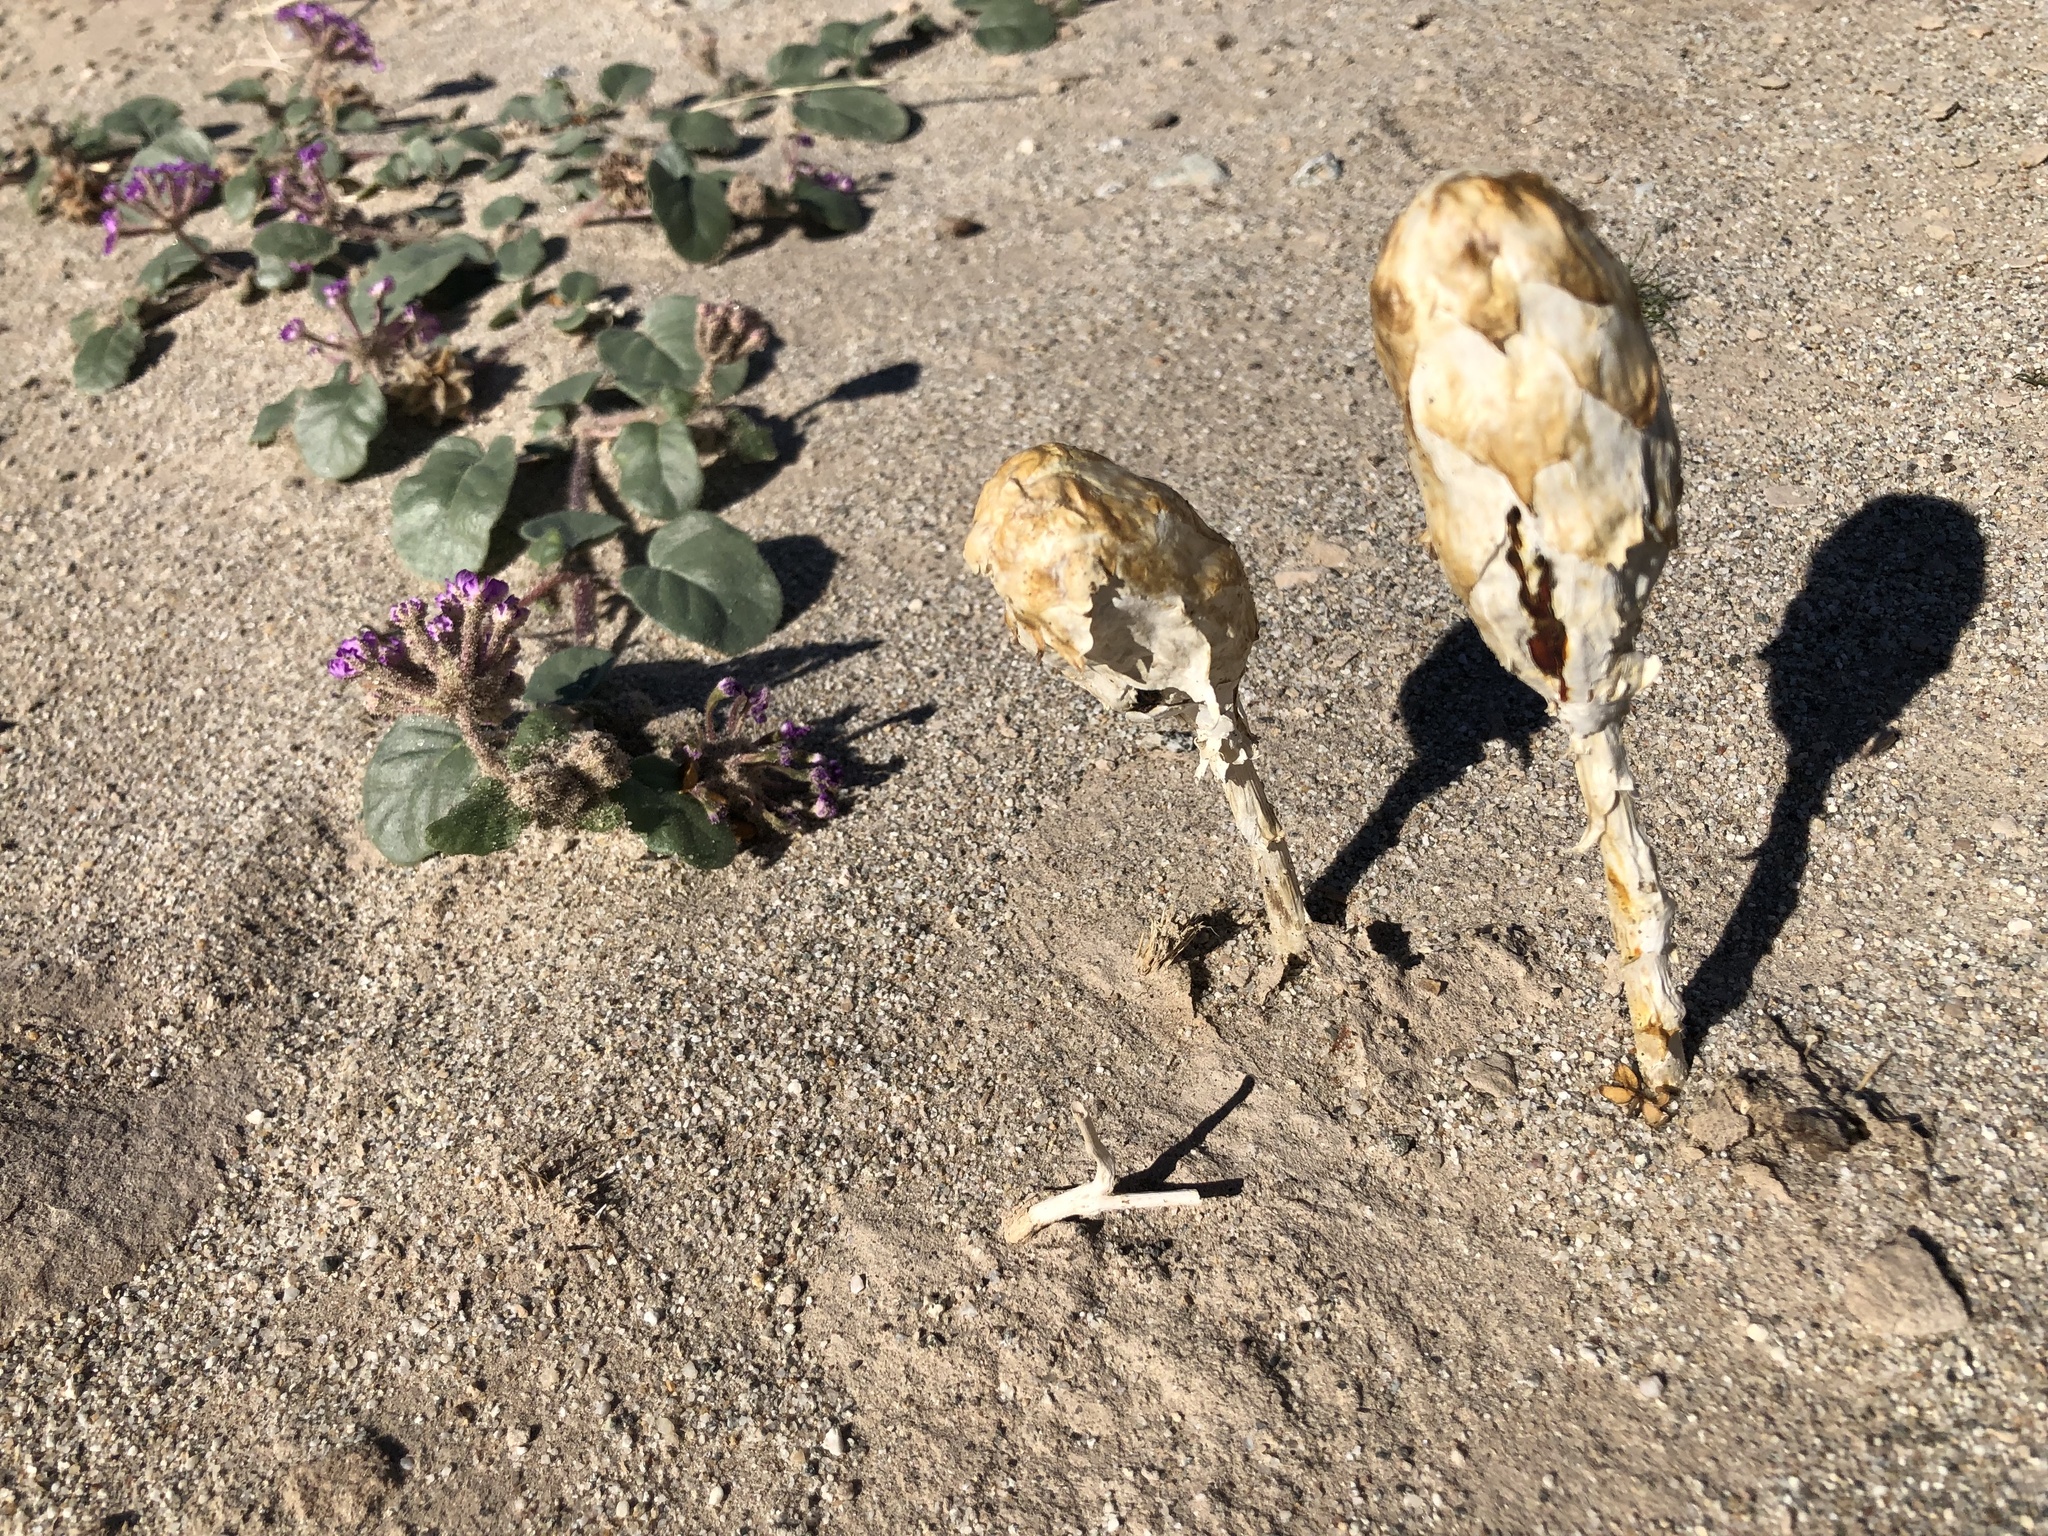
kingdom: Fungi
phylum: Basidiomycota
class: Agaricomycetes
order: Agaricales
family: Agaricaceae
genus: Podaxis
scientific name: Podaxis pistillaris
